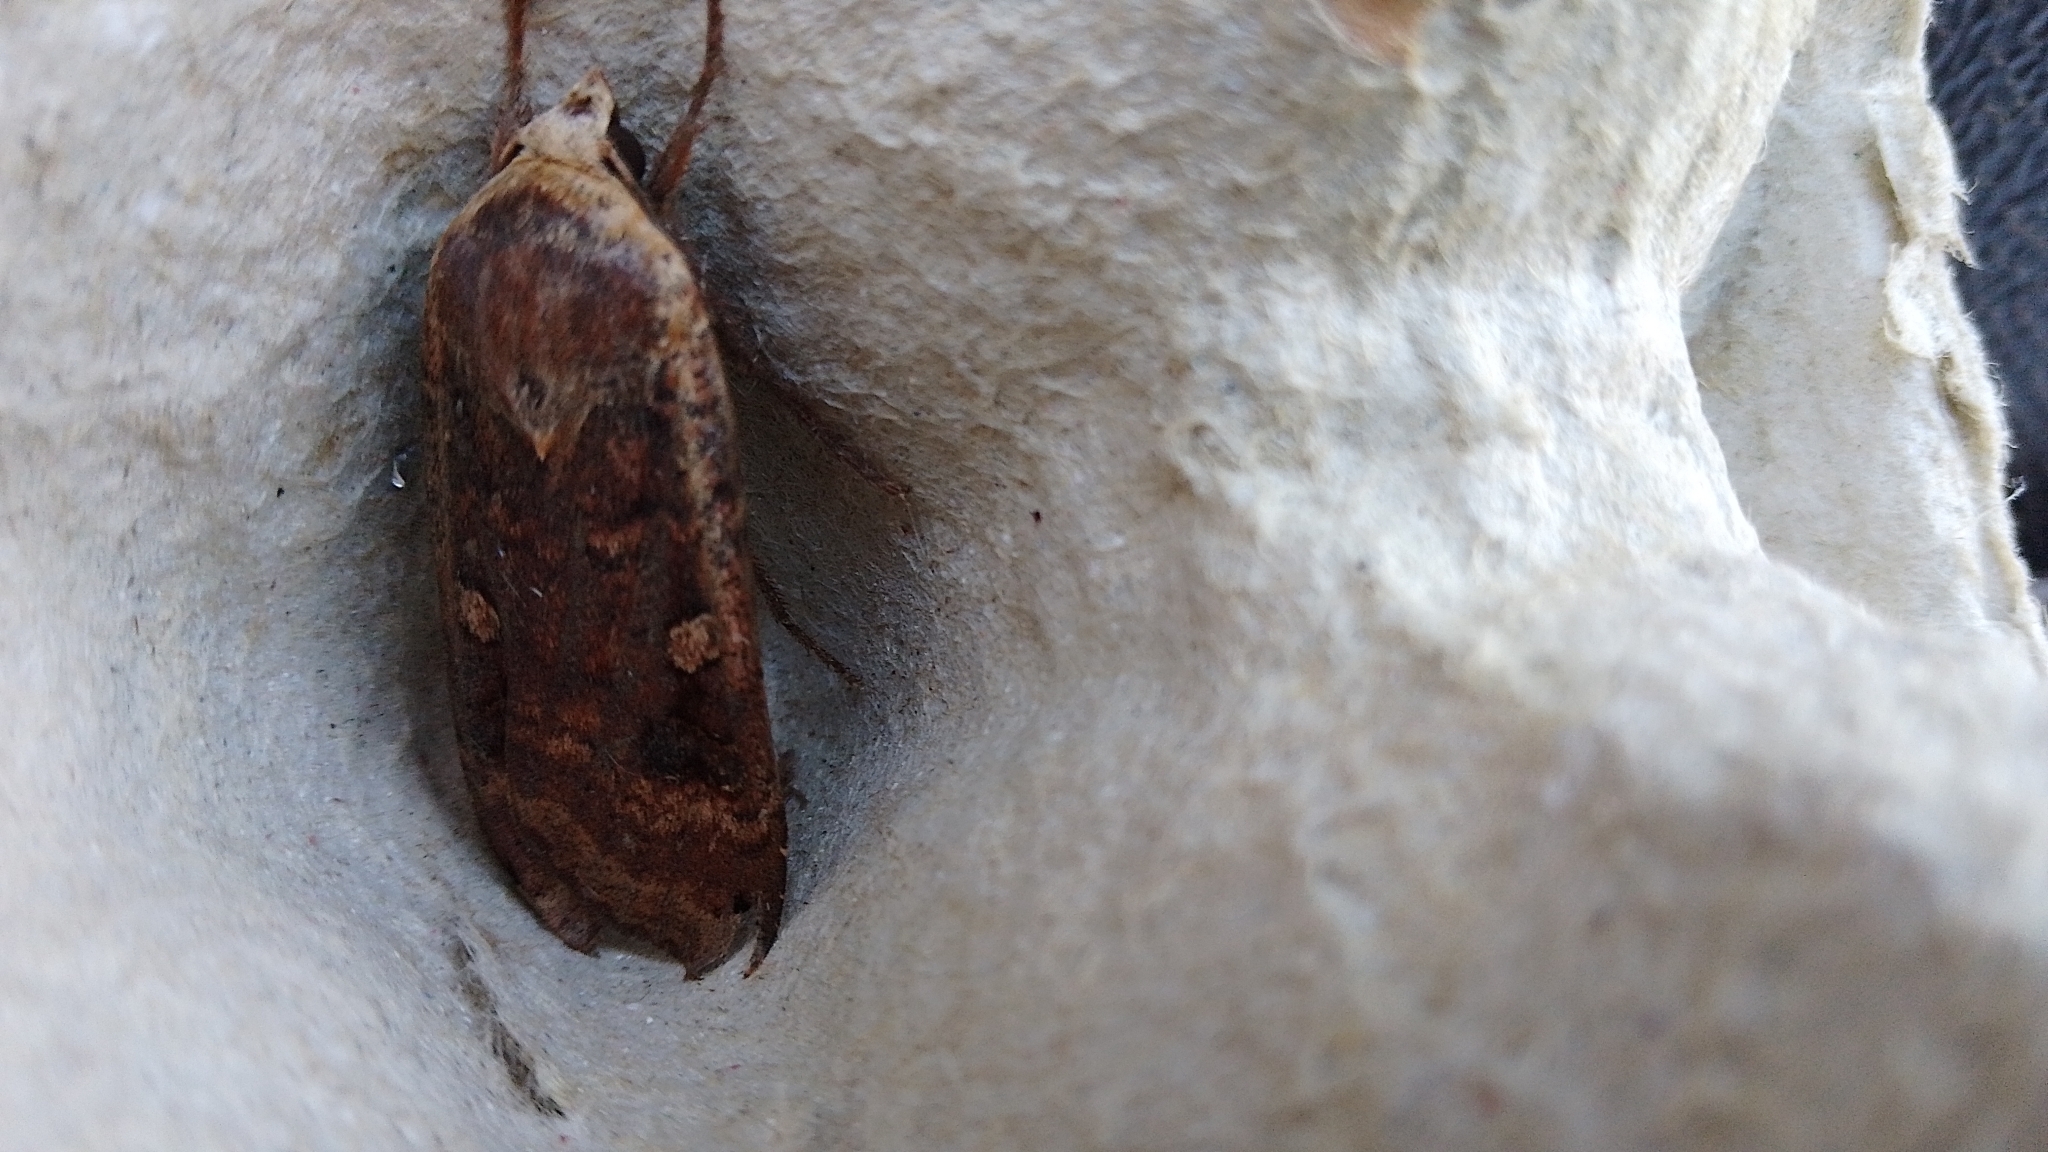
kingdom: Animalia
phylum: Arthropoda
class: Insecta
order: Lepidoptera
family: Noctuidae
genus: Noctua
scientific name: Noctua pronuba
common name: Large yellow underwing
